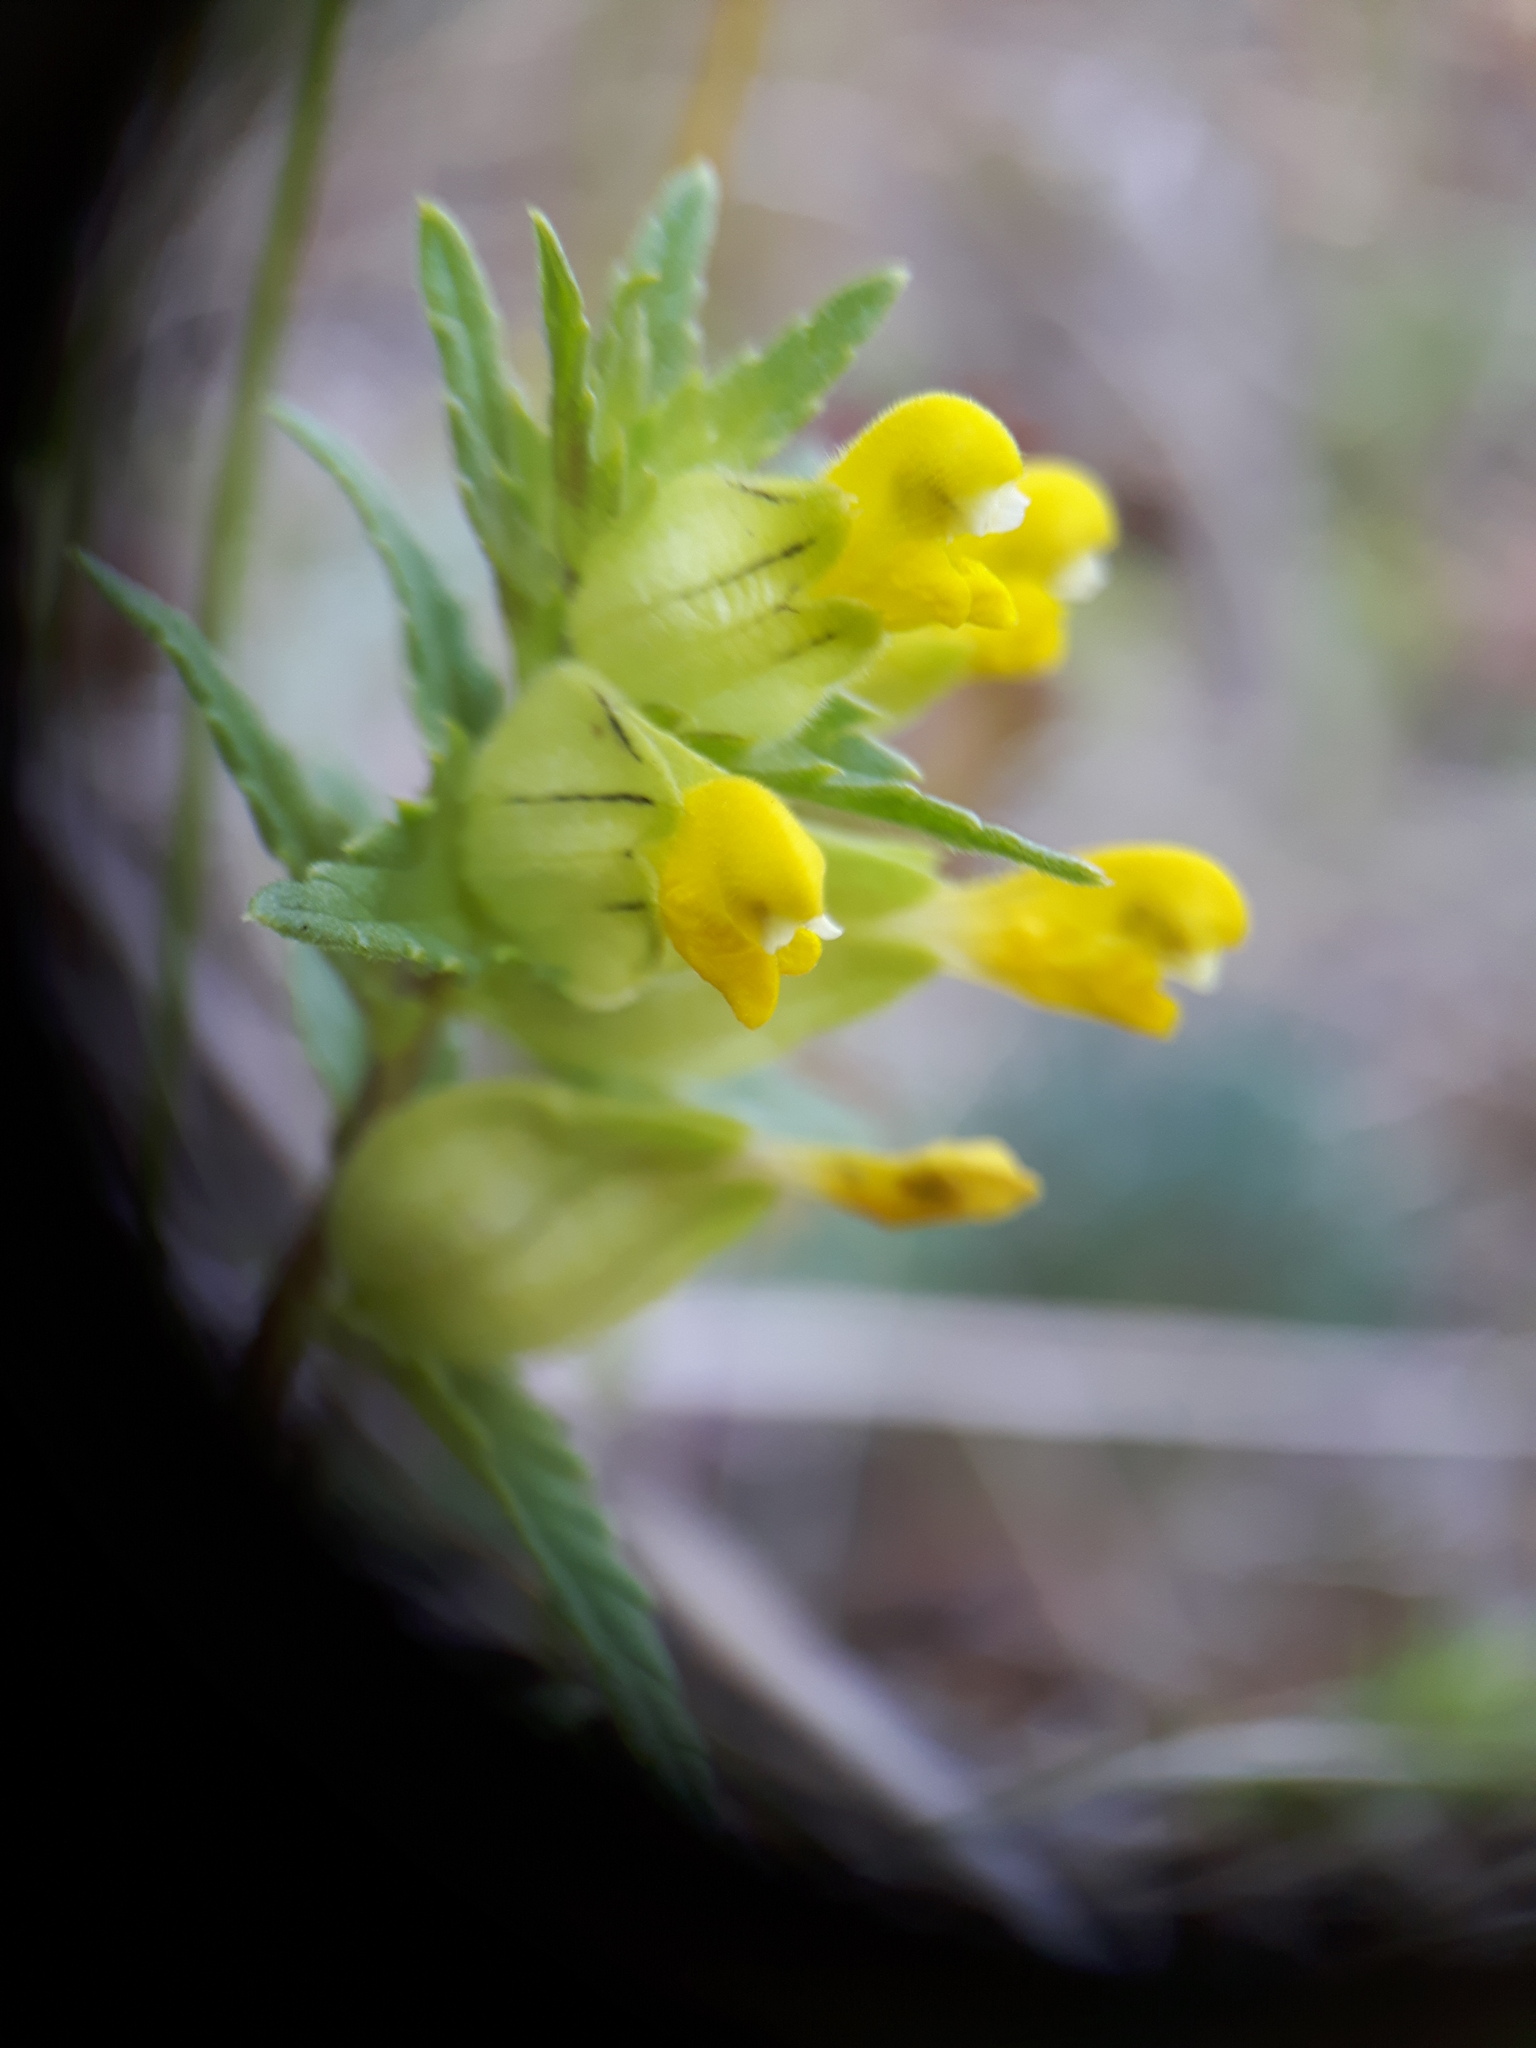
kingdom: Plantae
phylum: Tracheophyta
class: Magnoliopsida
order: Lamiales
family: Orobanchaceae
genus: Rhinanthus
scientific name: Rhinanthus groenlandicus
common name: Little yellow rattle
